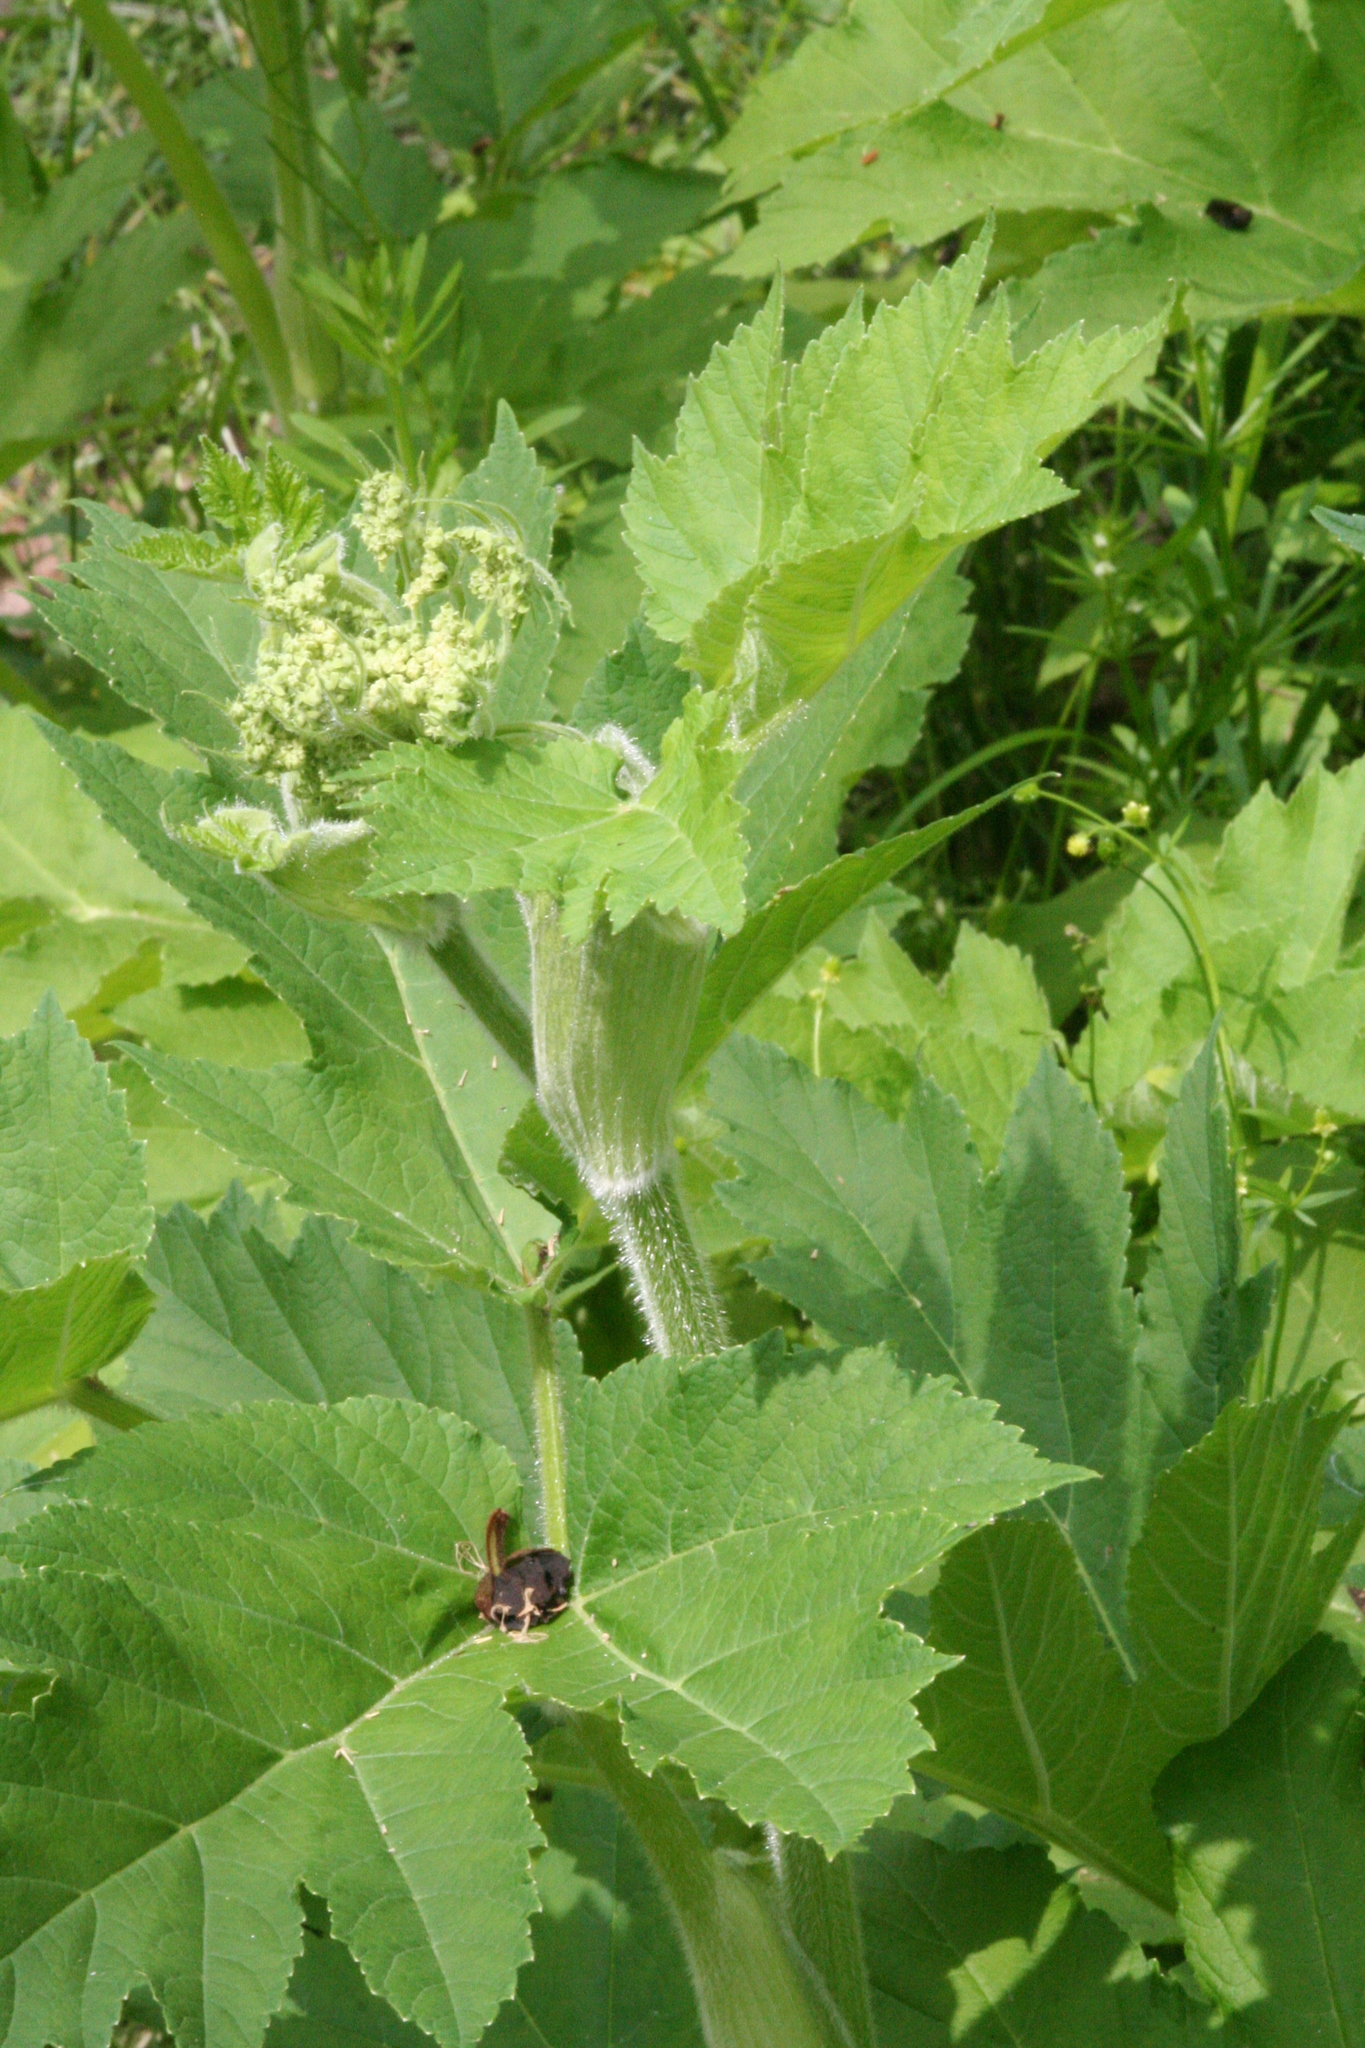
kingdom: Plantae
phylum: Tracheophyta
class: Magnoliopsida
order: Apiales
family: Apiaceae
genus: Heracleum
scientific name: Heracleum maximum
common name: American cow parsnip
